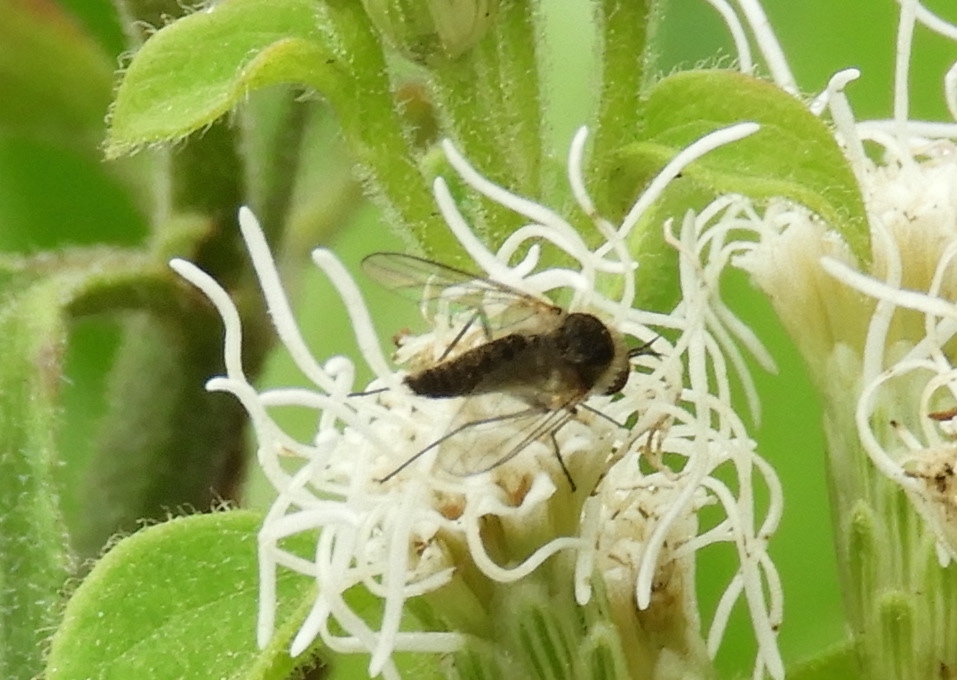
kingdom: Animalia
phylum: Arthropoda
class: Insecta
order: Diptera
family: Bombyliidae
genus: Geron
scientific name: Geron
